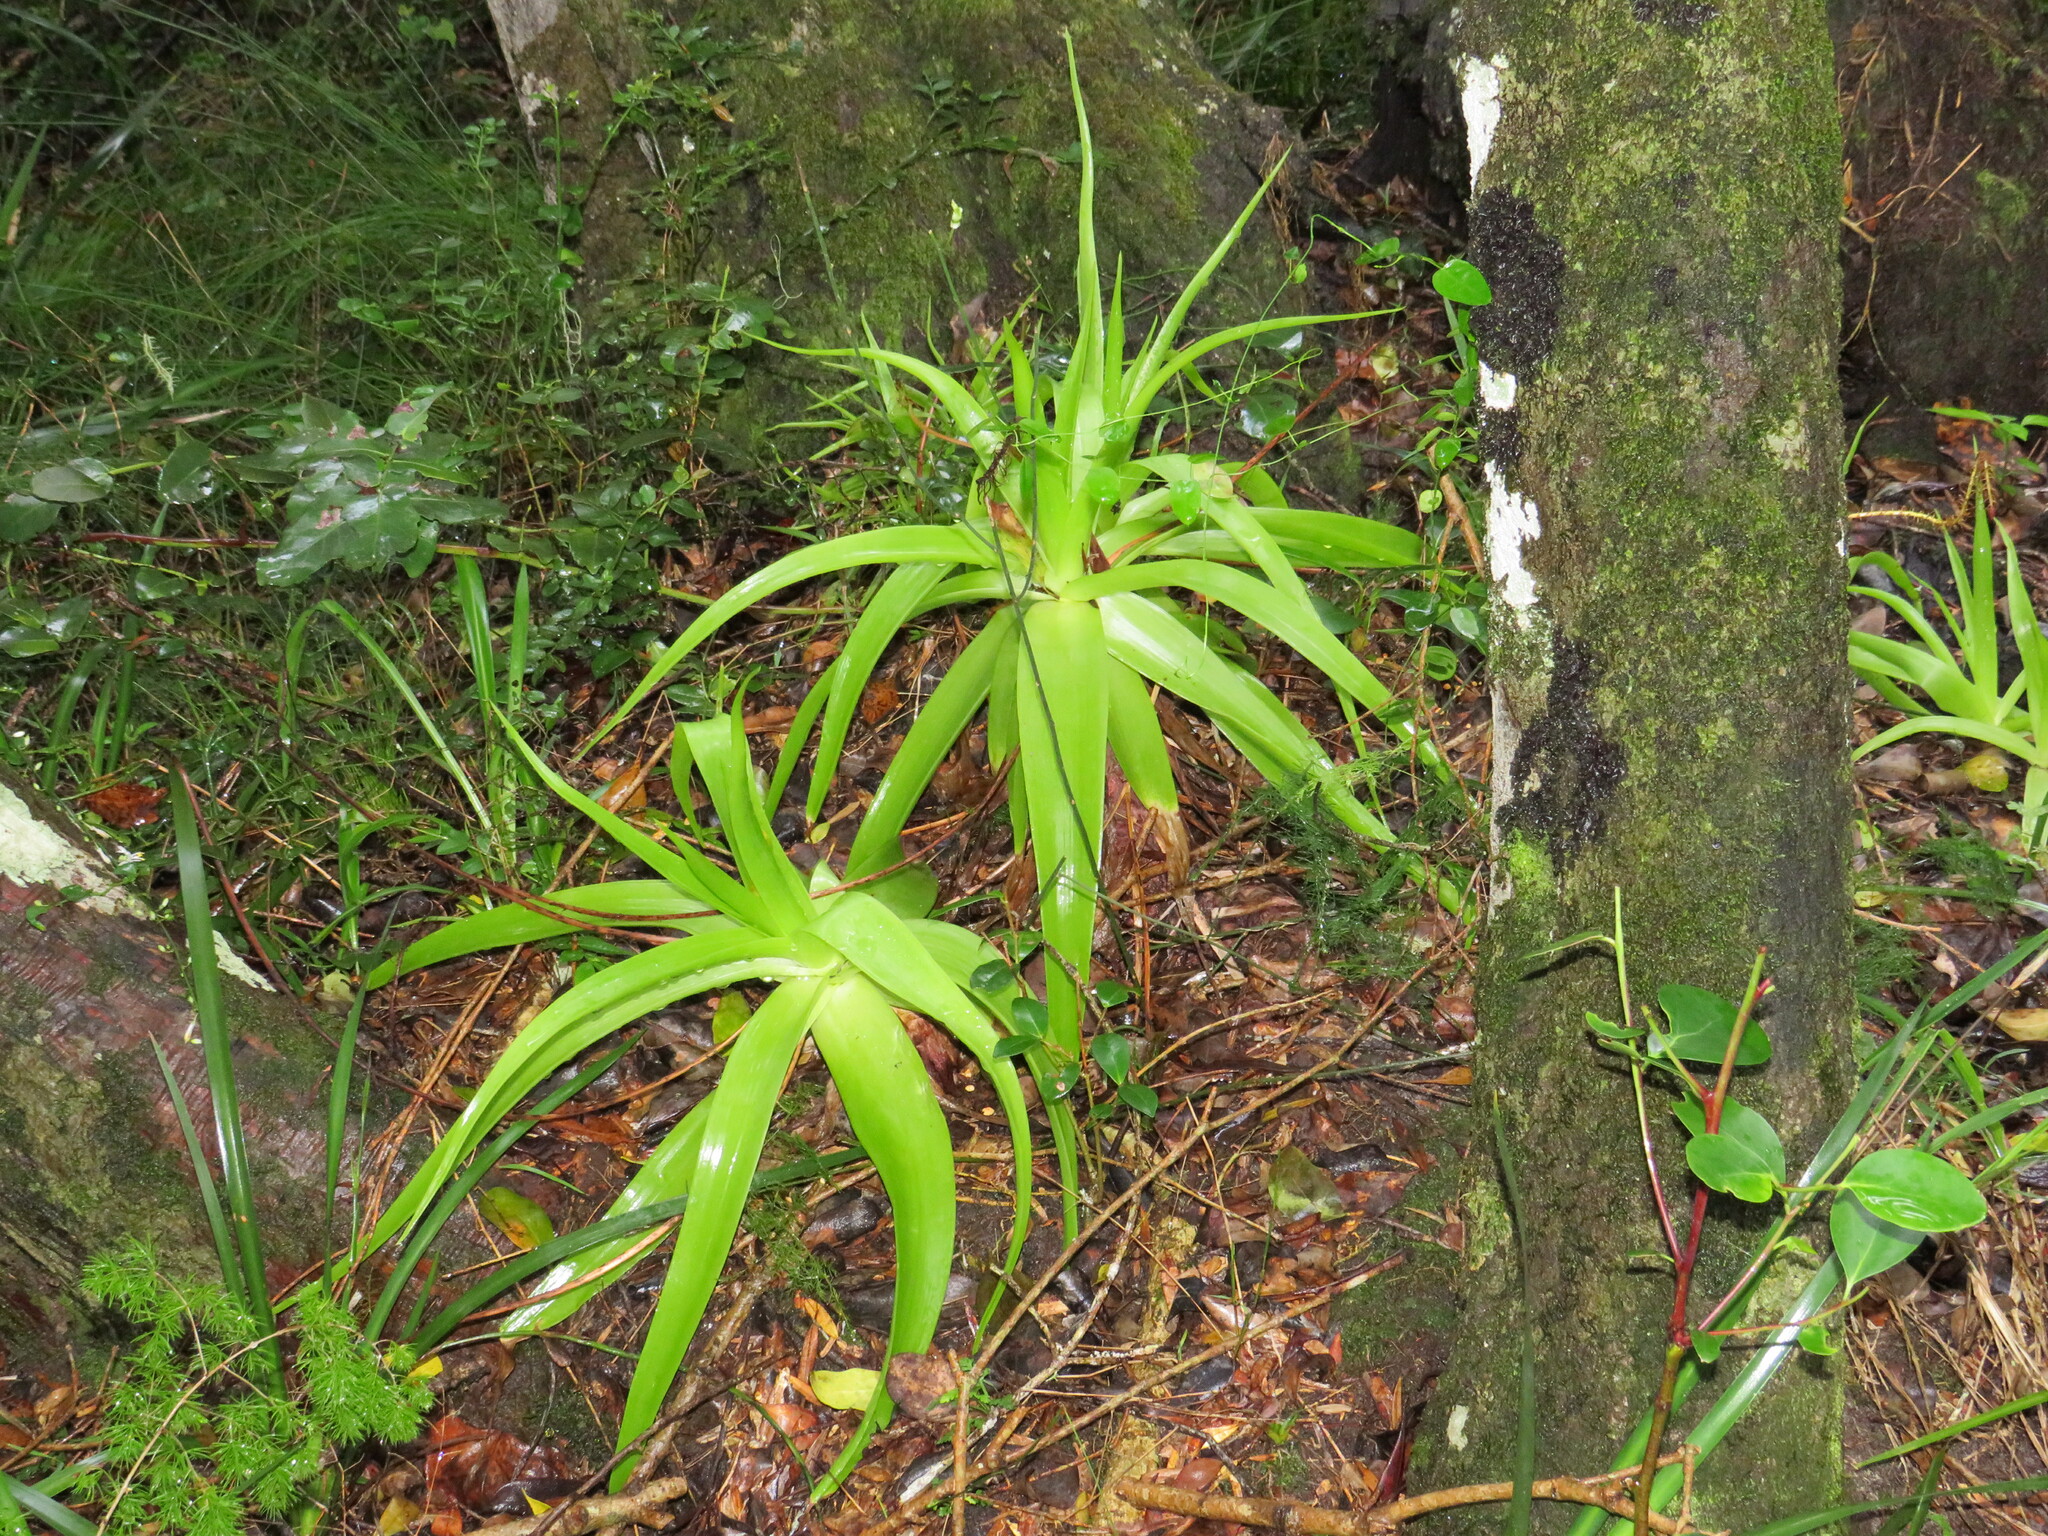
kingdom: Plantae
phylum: Tracheophyta
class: Liliopsida
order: Asparagales
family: Asphodelaceae
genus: Bulbine
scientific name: Bulbine latifolia
